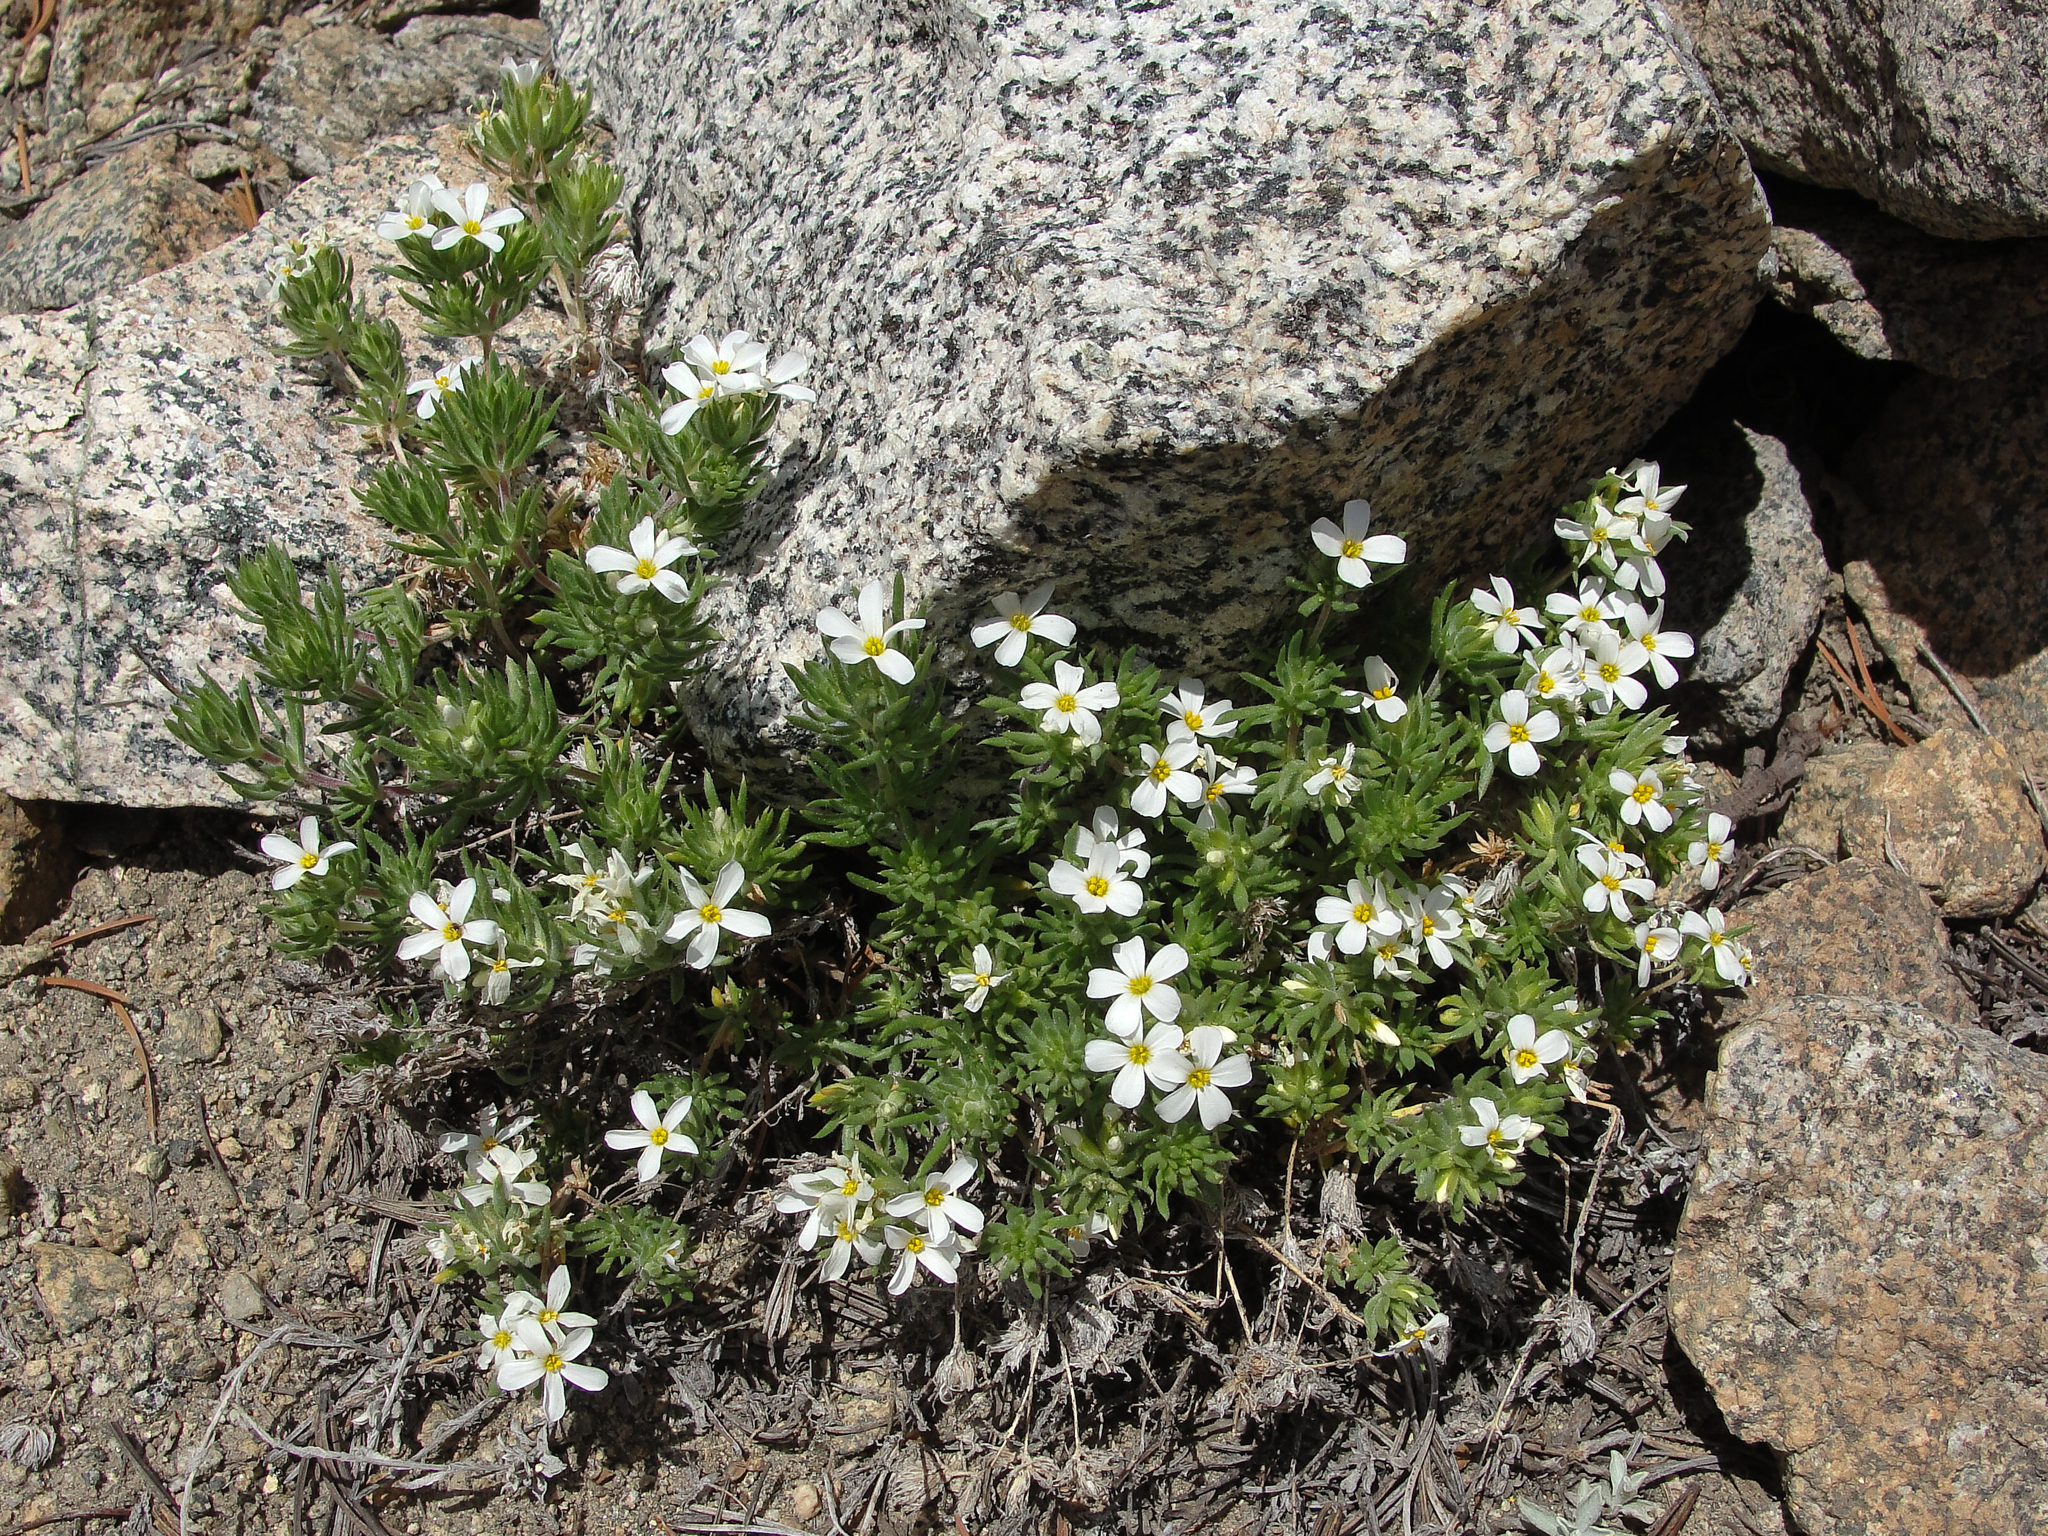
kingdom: Plantae
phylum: Tracheophyta
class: Magnoliopsida
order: Ericales
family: Polemoniaceae
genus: Leptosiphon
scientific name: Leptosiphon nuttallii
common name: Nuttall's linanthus
